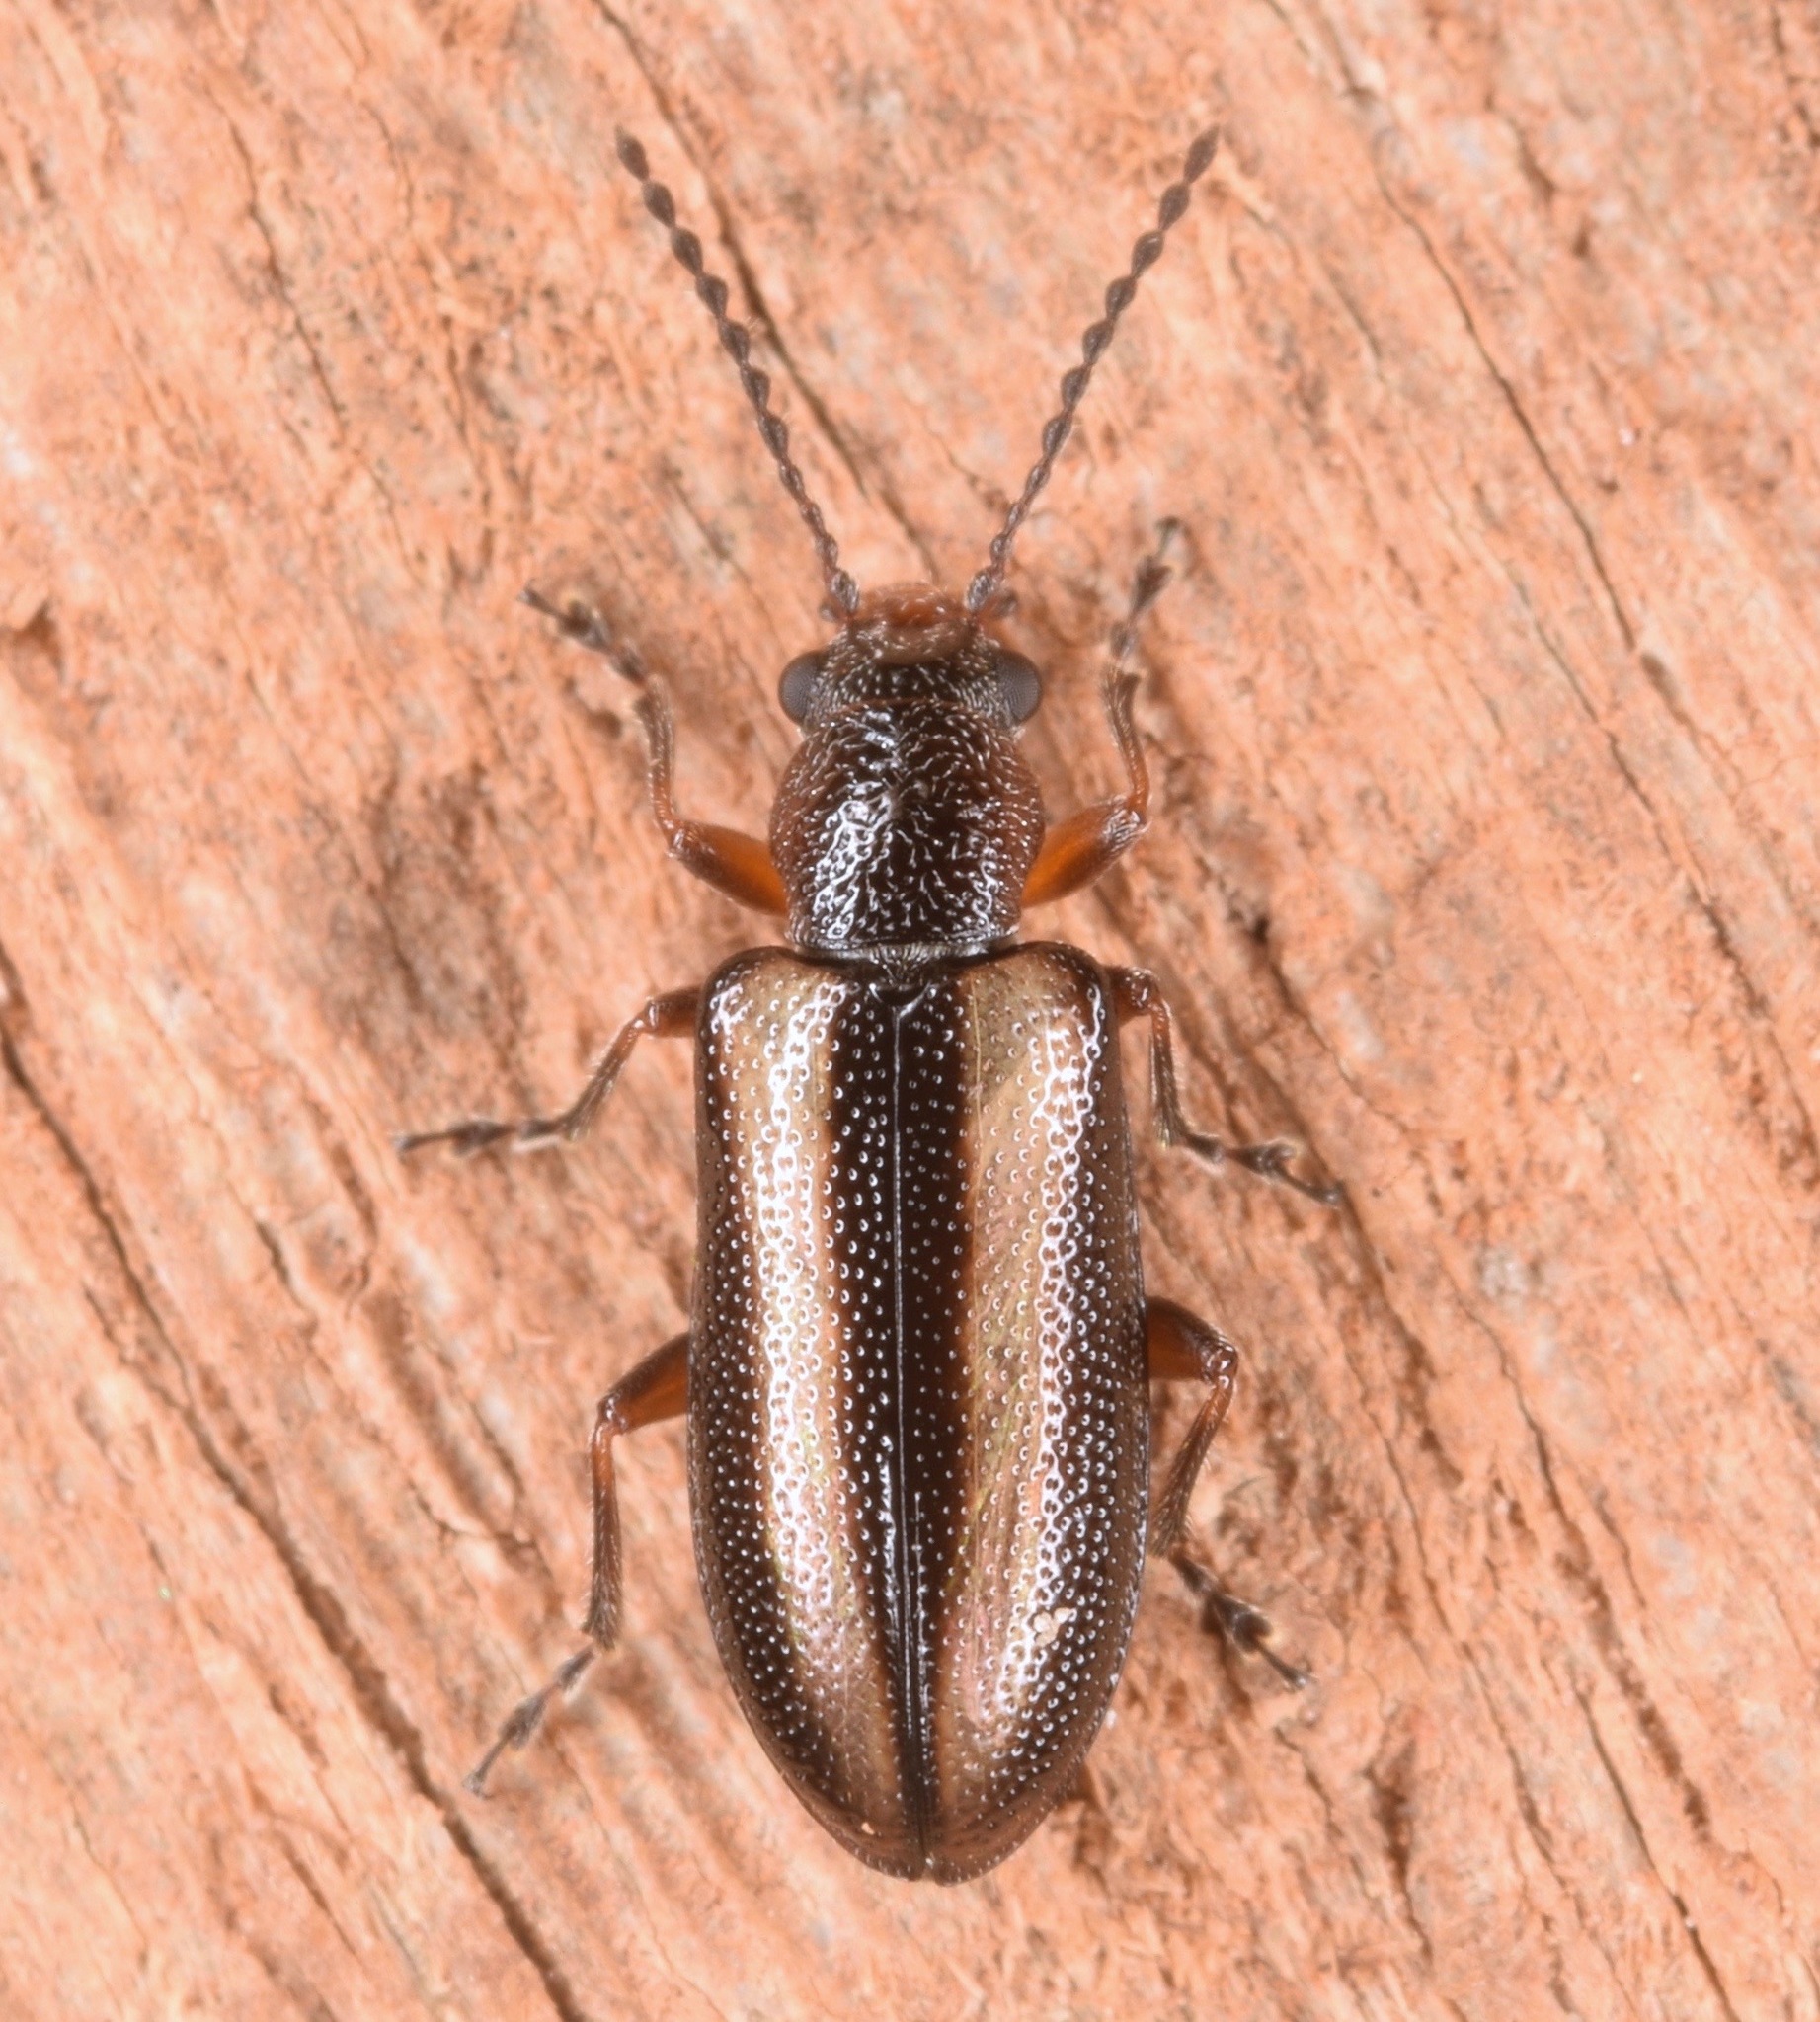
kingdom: Animalia
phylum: Arthropoda
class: Insecta
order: Coleoptera
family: Orsodacnidae
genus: Orsodacne
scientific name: Orsodacne atra
